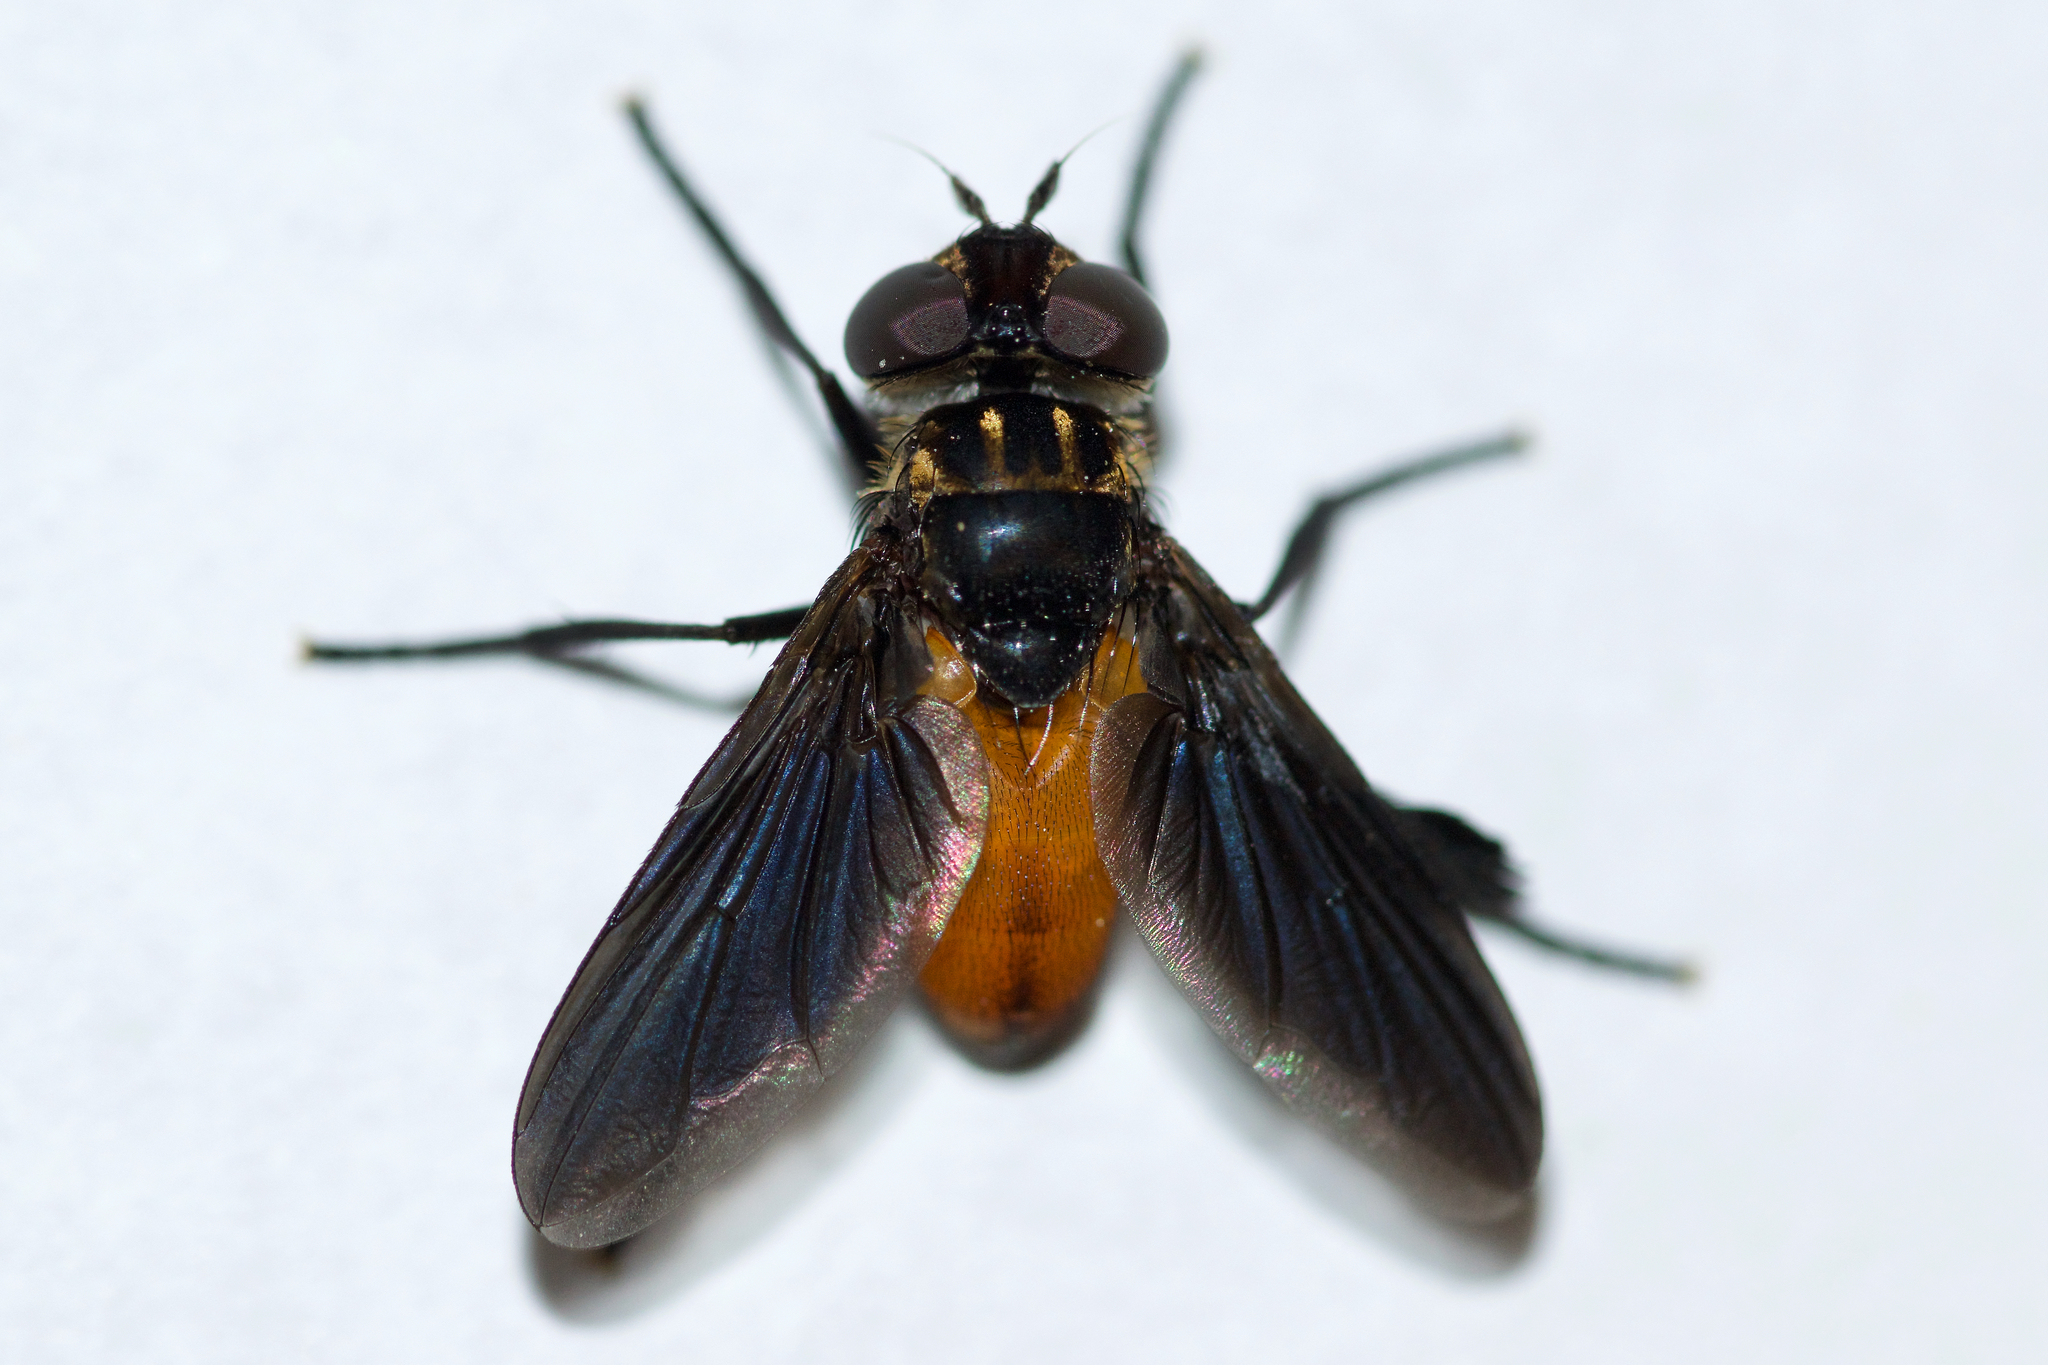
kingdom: Animalia
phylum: Arthropoda
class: Insecta
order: Diptera
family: Tachinidae
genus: Trichopoda
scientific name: Trichopoda pennipes
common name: Tachinid fly
